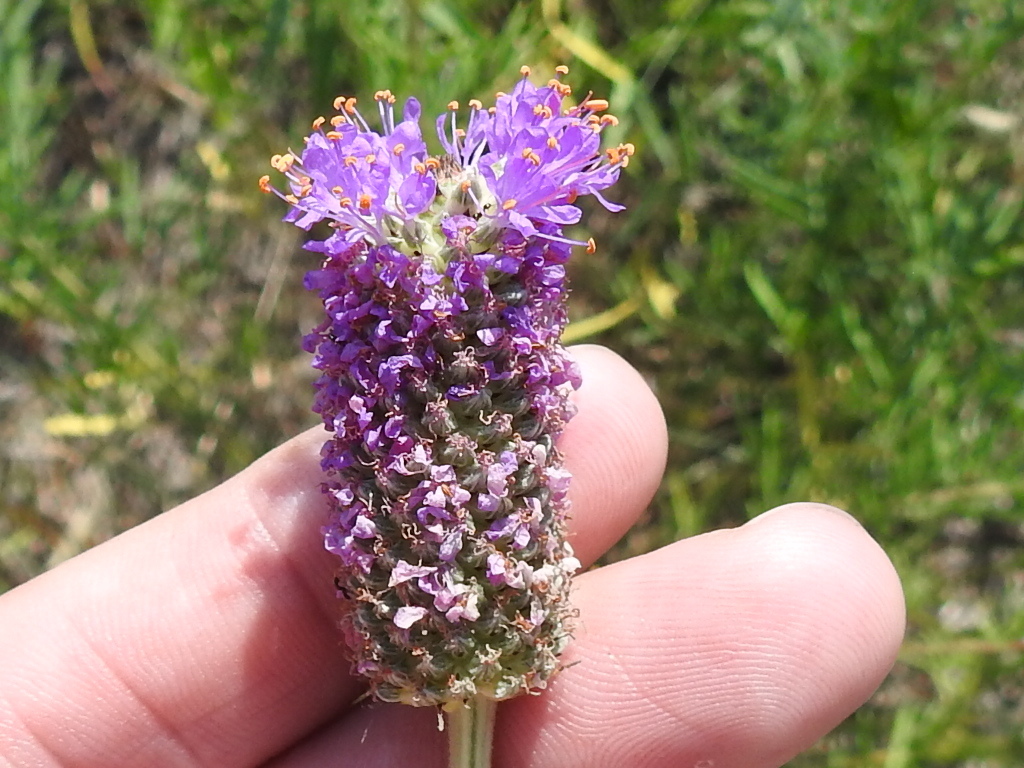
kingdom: Plantae
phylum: Tracheophyta
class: Magnoliopsida
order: Fabales
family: Fabaceae
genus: Dalea
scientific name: Dalea compacta
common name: Compact prairie-clover
